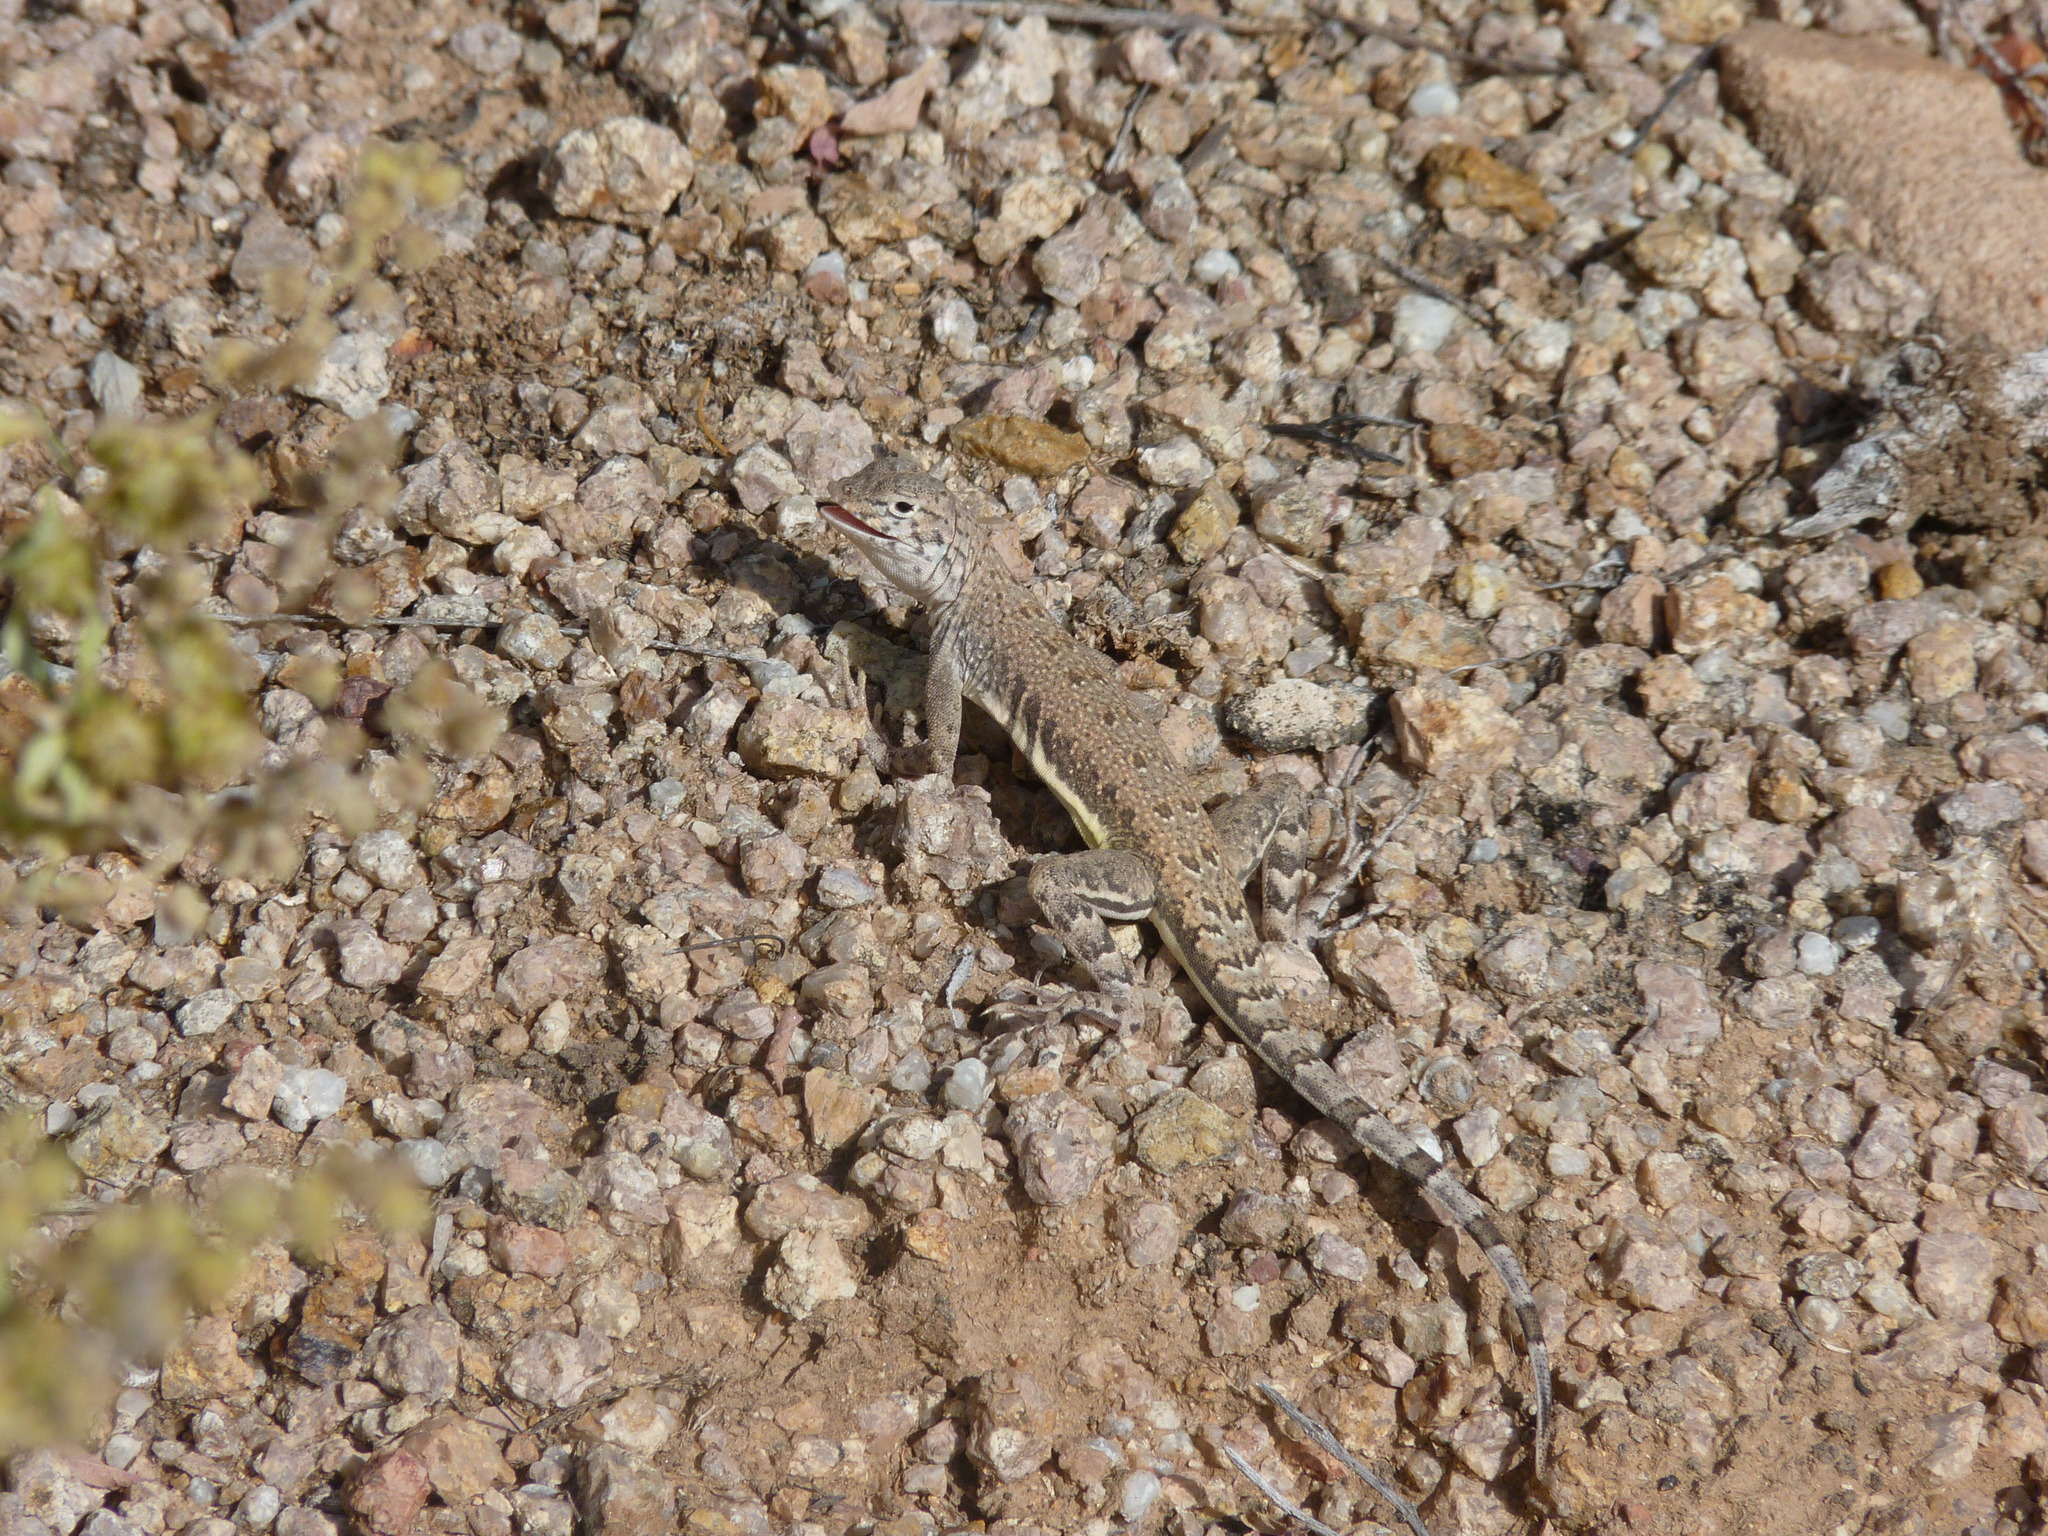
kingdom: Animalia
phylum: Chordata
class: Squamata
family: Phrynosomatidae
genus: Callisaurus
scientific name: Callisaurus draconoides
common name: Zebra-tailed lizard
